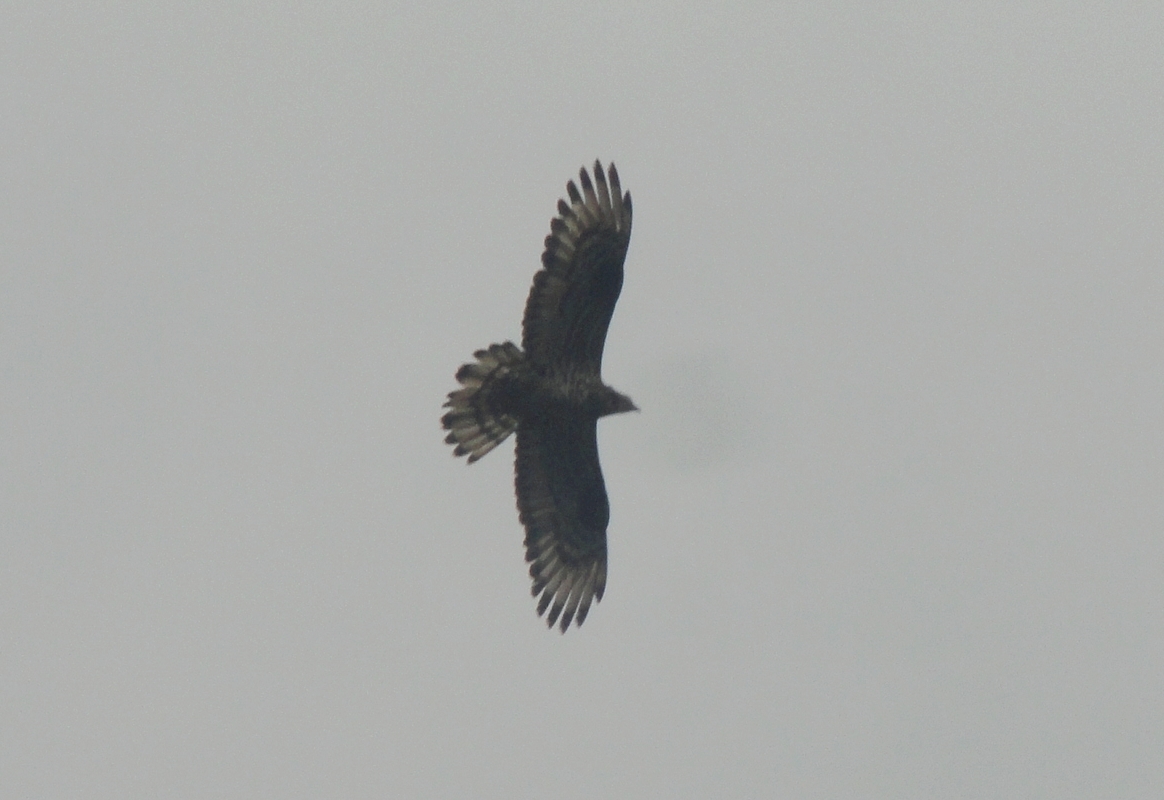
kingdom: Animalia
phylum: Chordata
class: Aves
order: Accipitriformes
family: Accipitridae
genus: Pernis
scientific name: Pernis apivorus
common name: European honey buzzard
